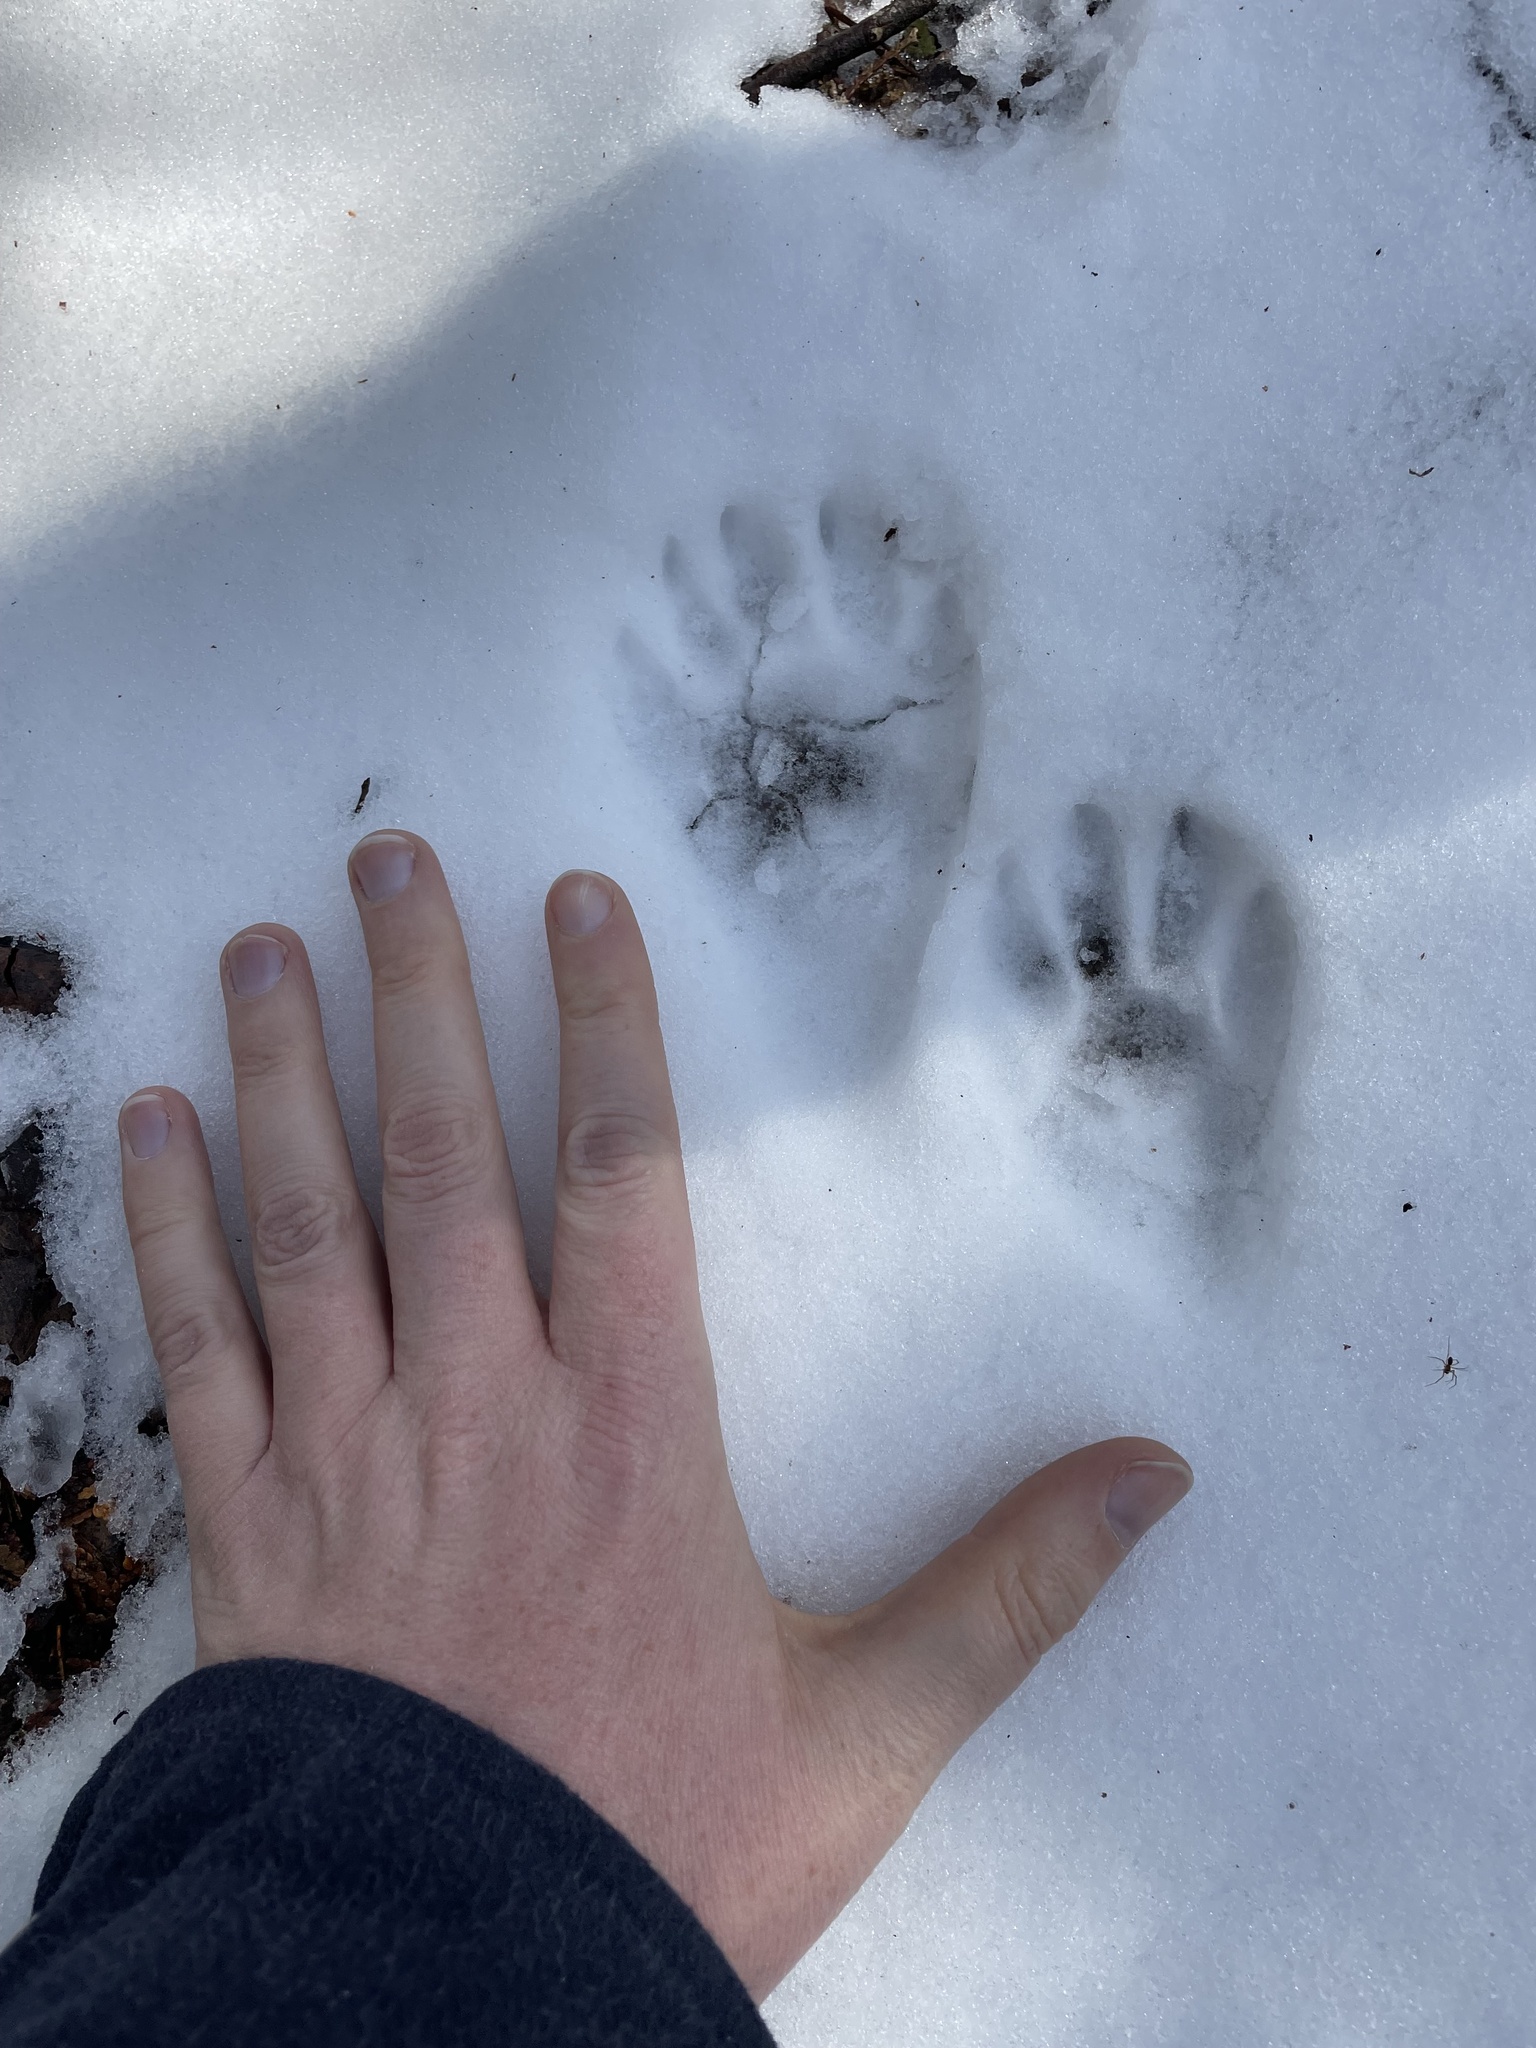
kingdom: Animalia
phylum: Chordata
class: Mammalia
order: Carnivora
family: Procyonidae
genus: Procyon
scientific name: Procyon lotor
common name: Raccoon
